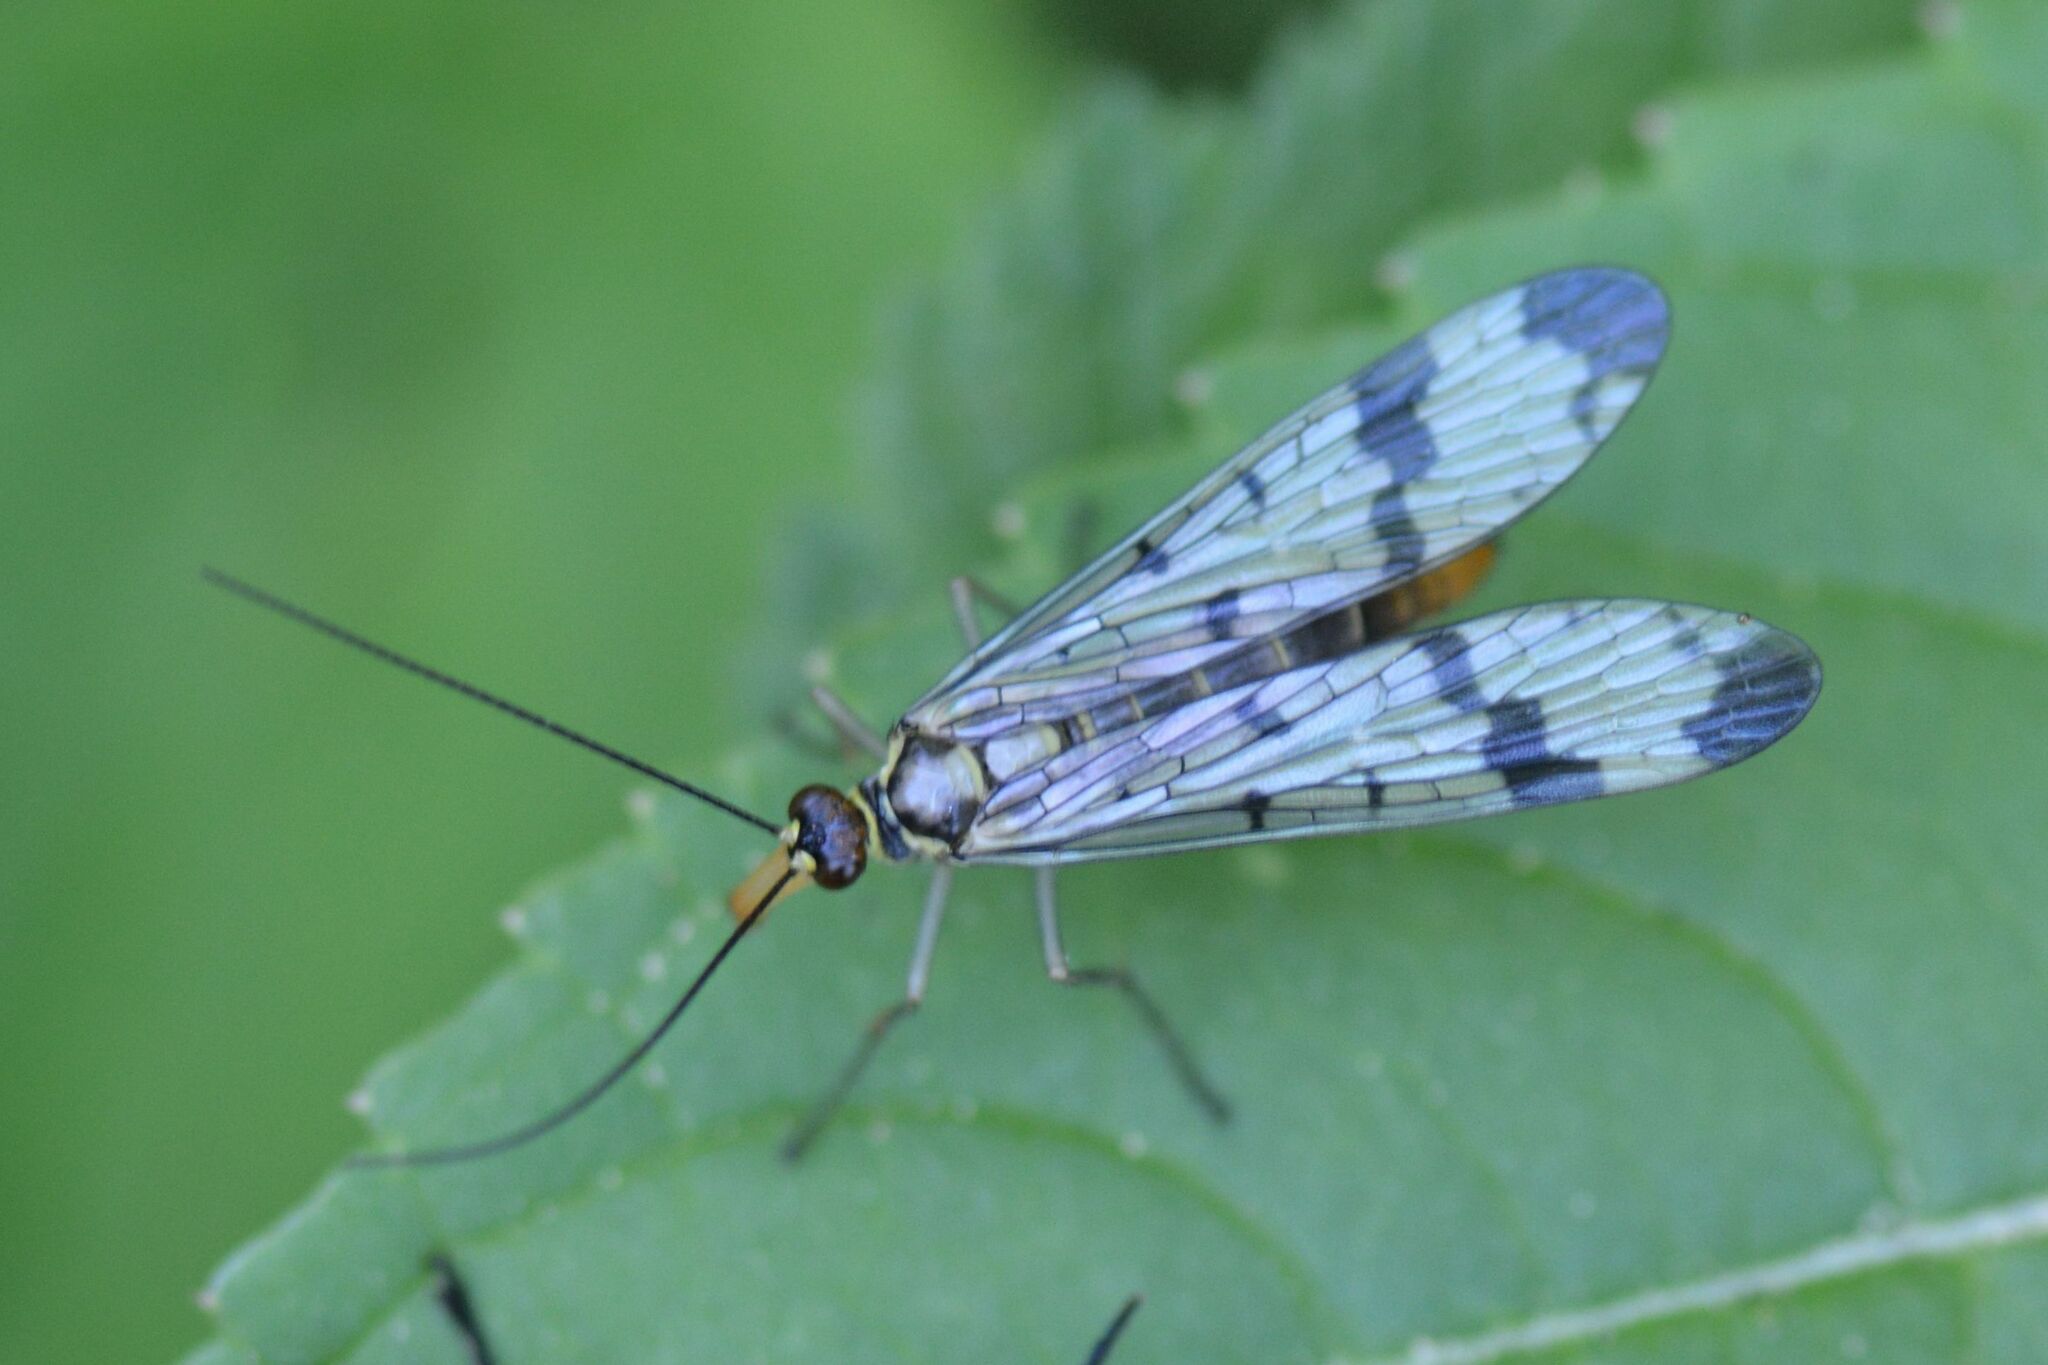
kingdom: Animalia
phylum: Arthropoda
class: Insecta
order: Mecoptera
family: Panorpidae
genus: Panorpa
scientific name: Panorpa communis
